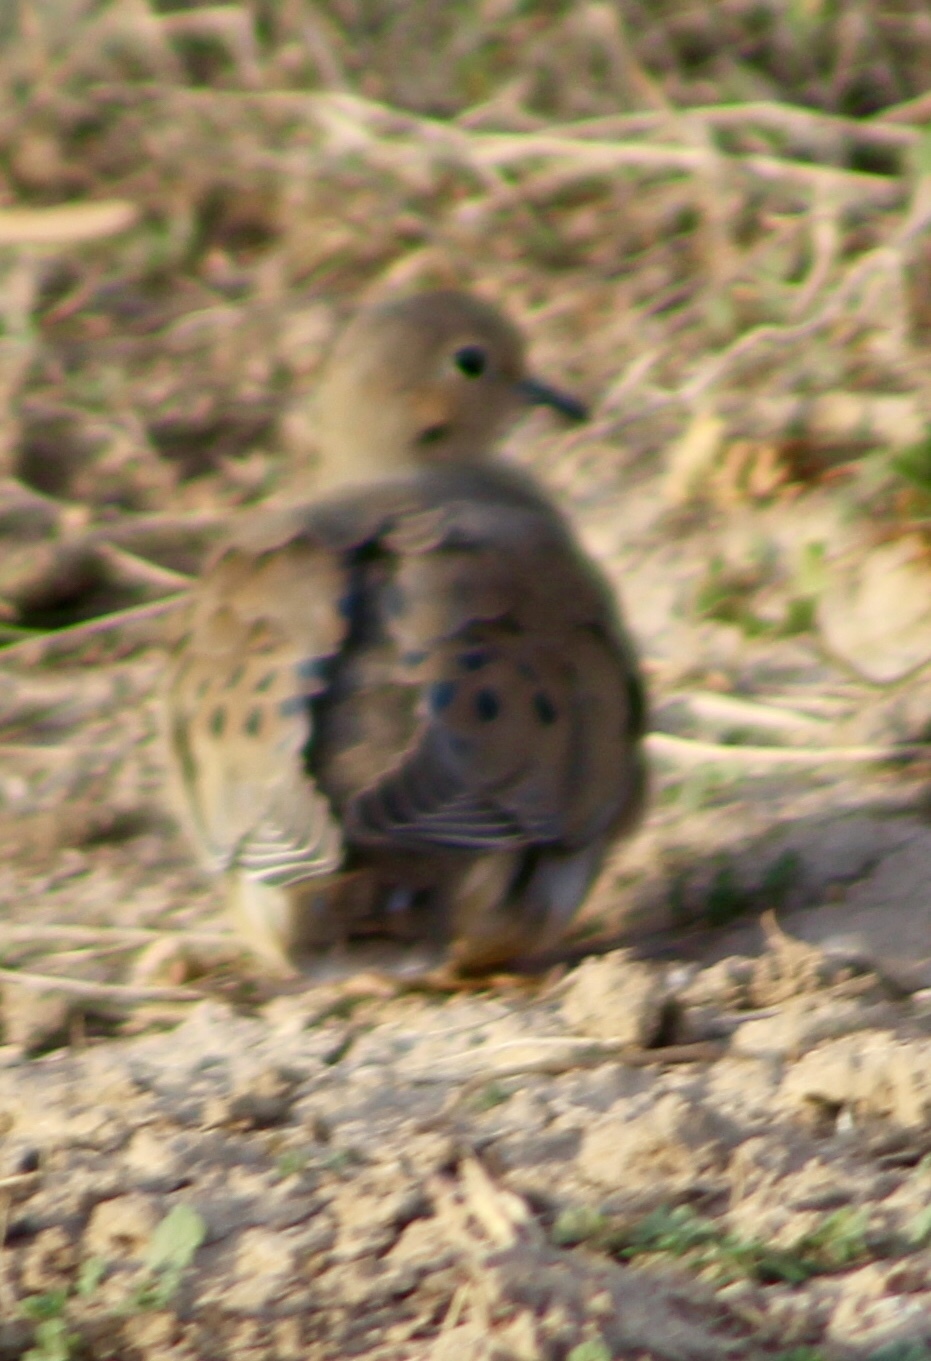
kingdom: Animalia
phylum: Chordata
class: Aves
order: Columbiformes
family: Columbidae
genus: Zenaida
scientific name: Zenaida macroura
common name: Mourning dove
